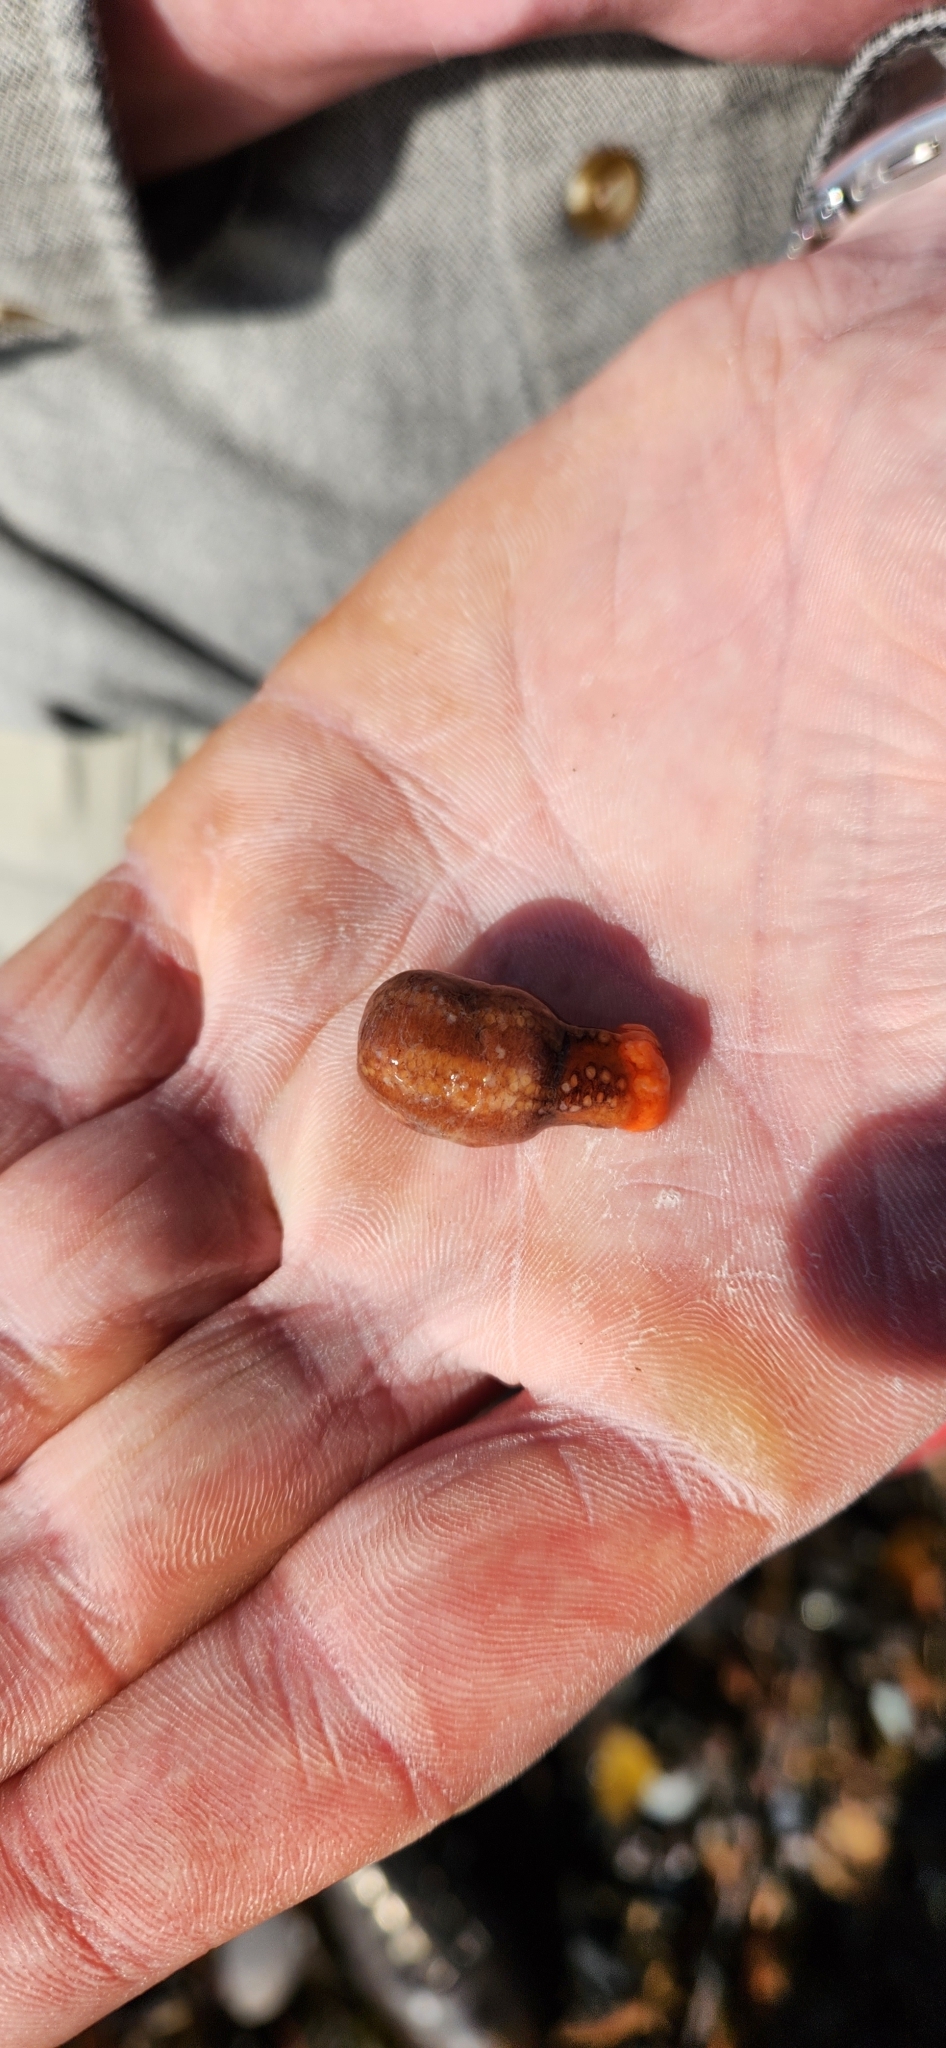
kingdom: Animalia
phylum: Echinodermata
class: Holothuroidea
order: Dendrochirotida
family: Cucumariidae
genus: Cucumaria
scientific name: Cucumaria miniata
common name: Orange sea cucumber
